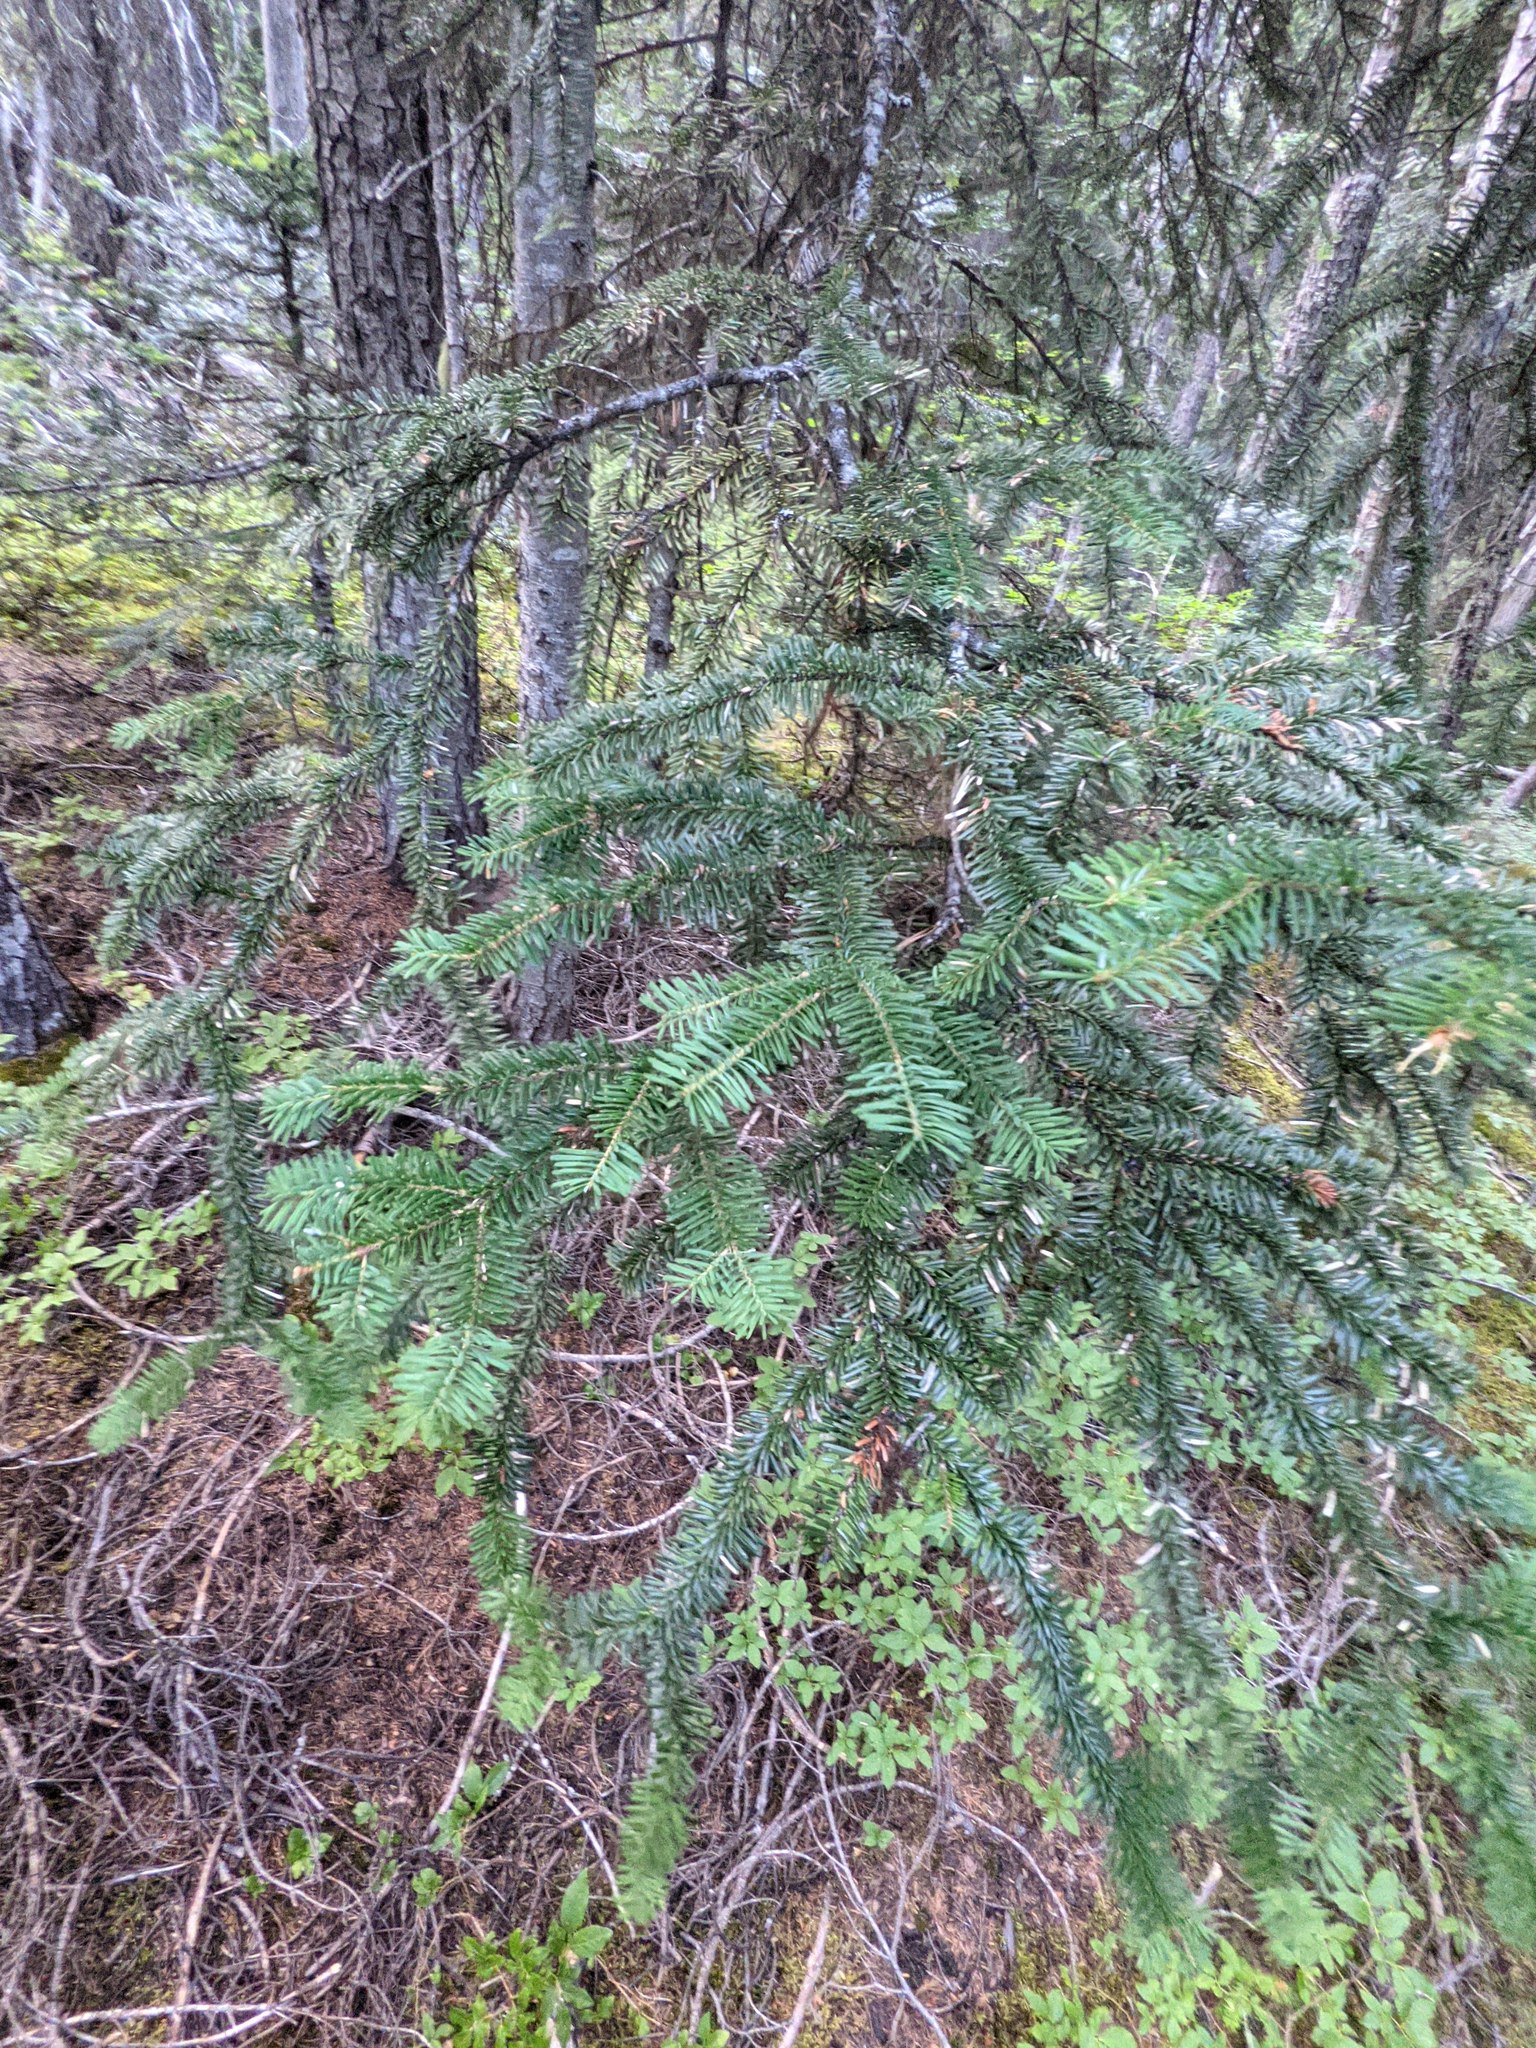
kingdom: Plantae
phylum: Tracheophyta
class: Pinopsida
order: Pinales
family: Pinaceae
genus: Abies
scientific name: Abies amabilis
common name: Pacific silver fir
